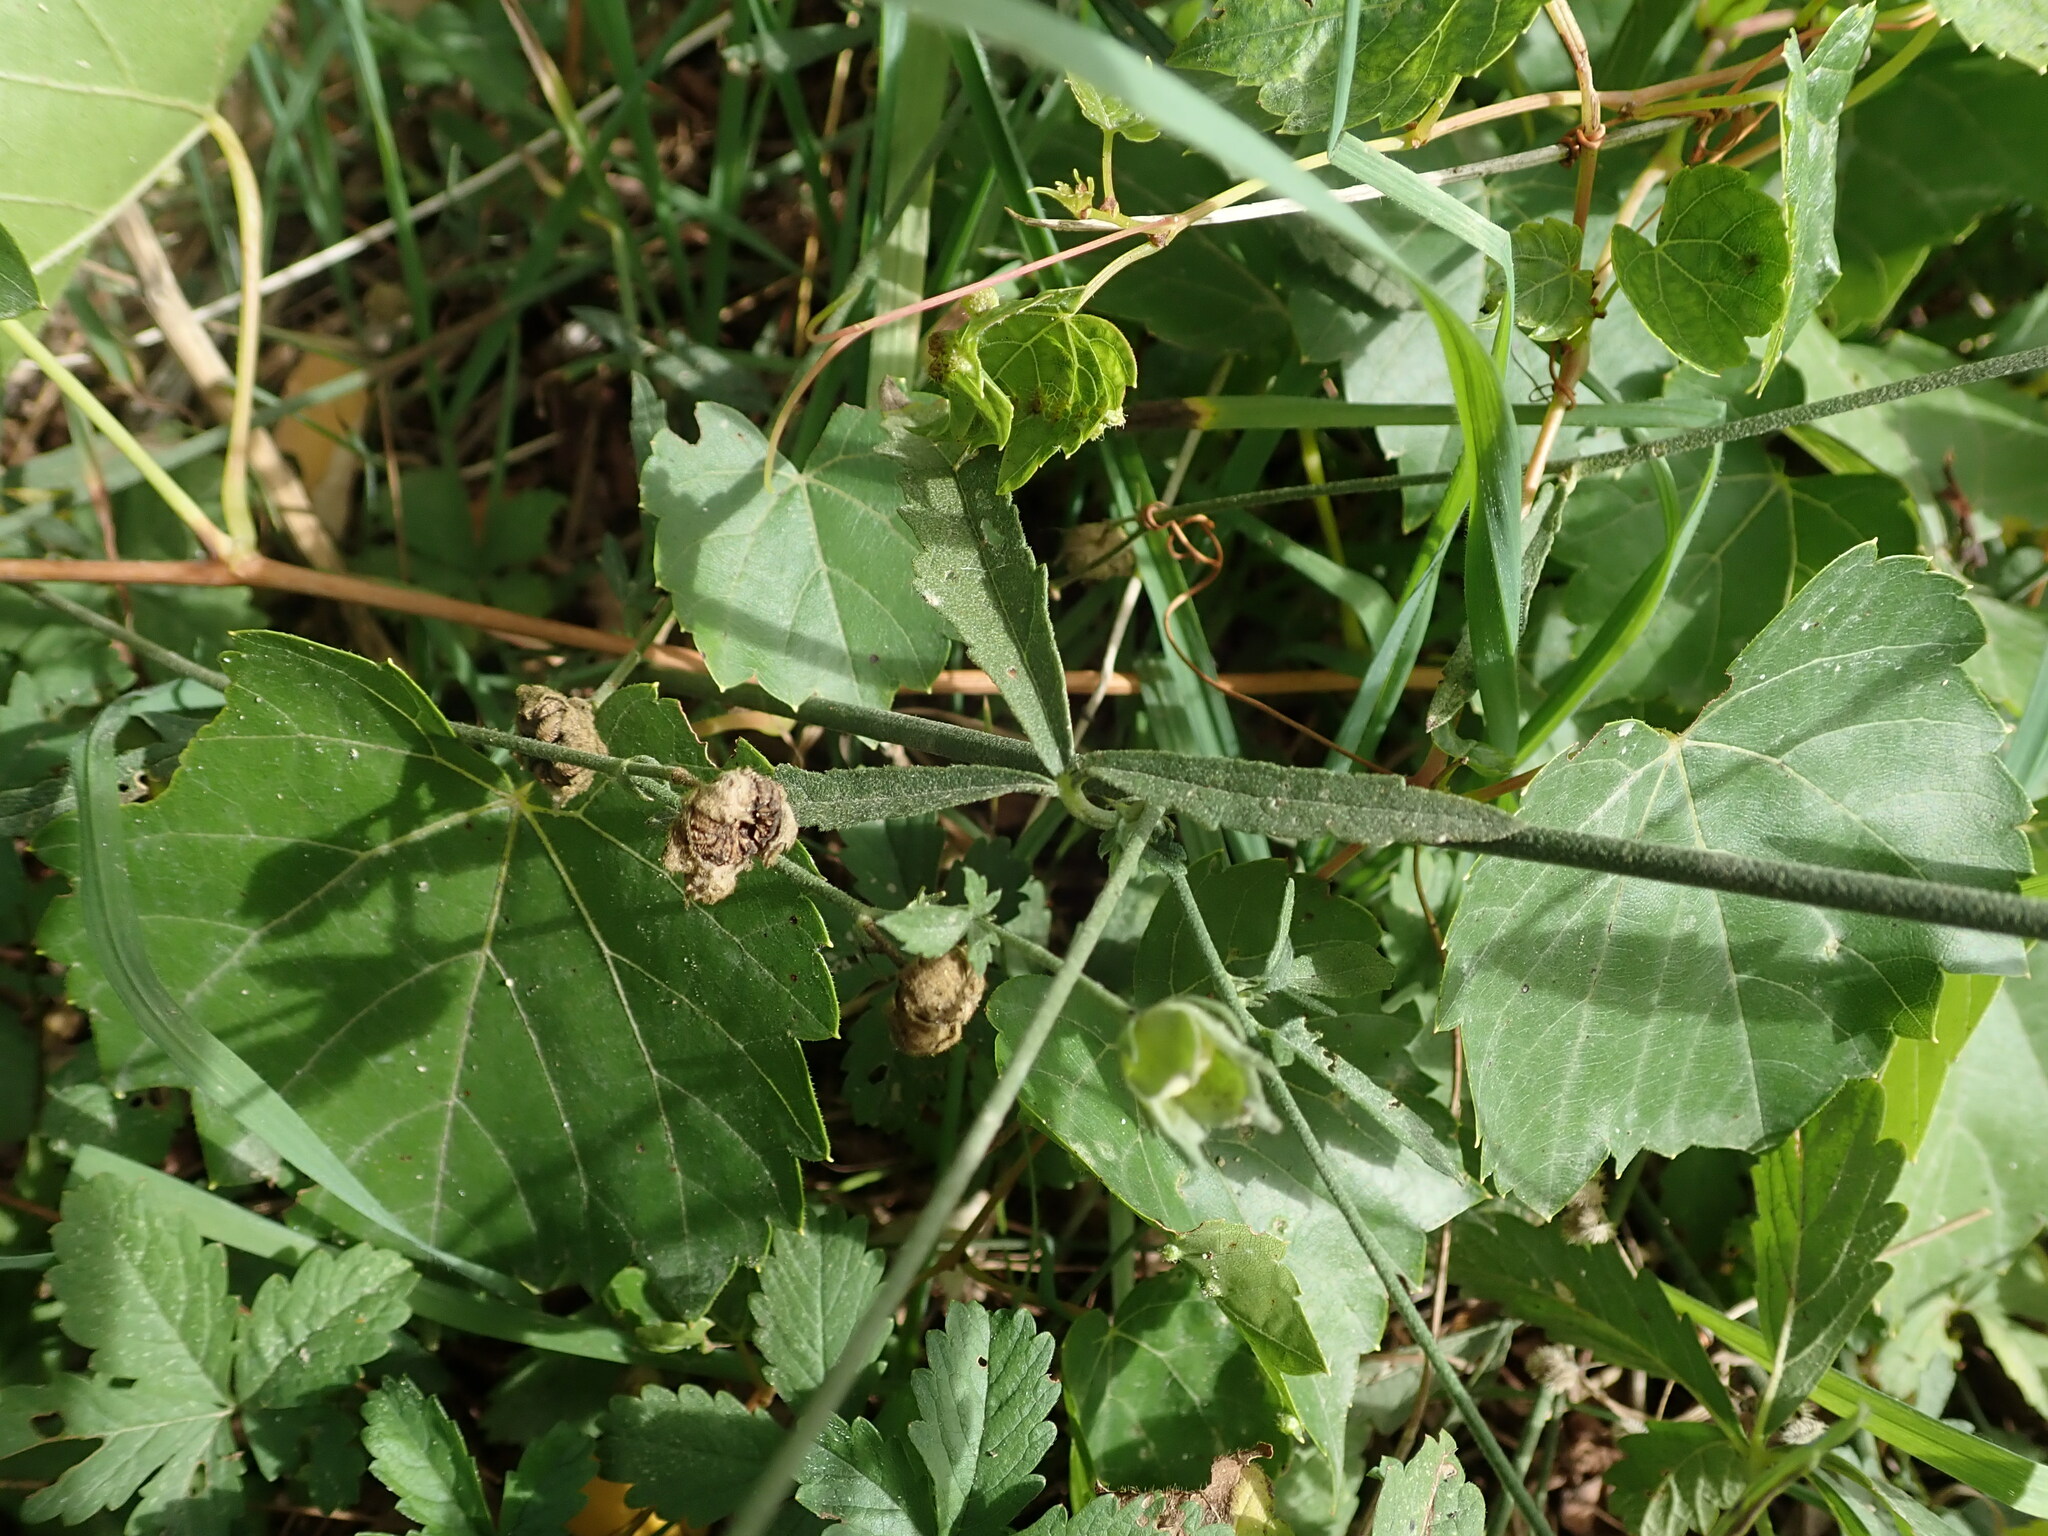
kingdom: Plantae
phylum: Tracheophyta
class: Magnoliopsida
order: Malvales
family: Malvaceae
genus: Althaea
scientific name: Althaea cannabina
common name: Palm-leaf marshmallow
